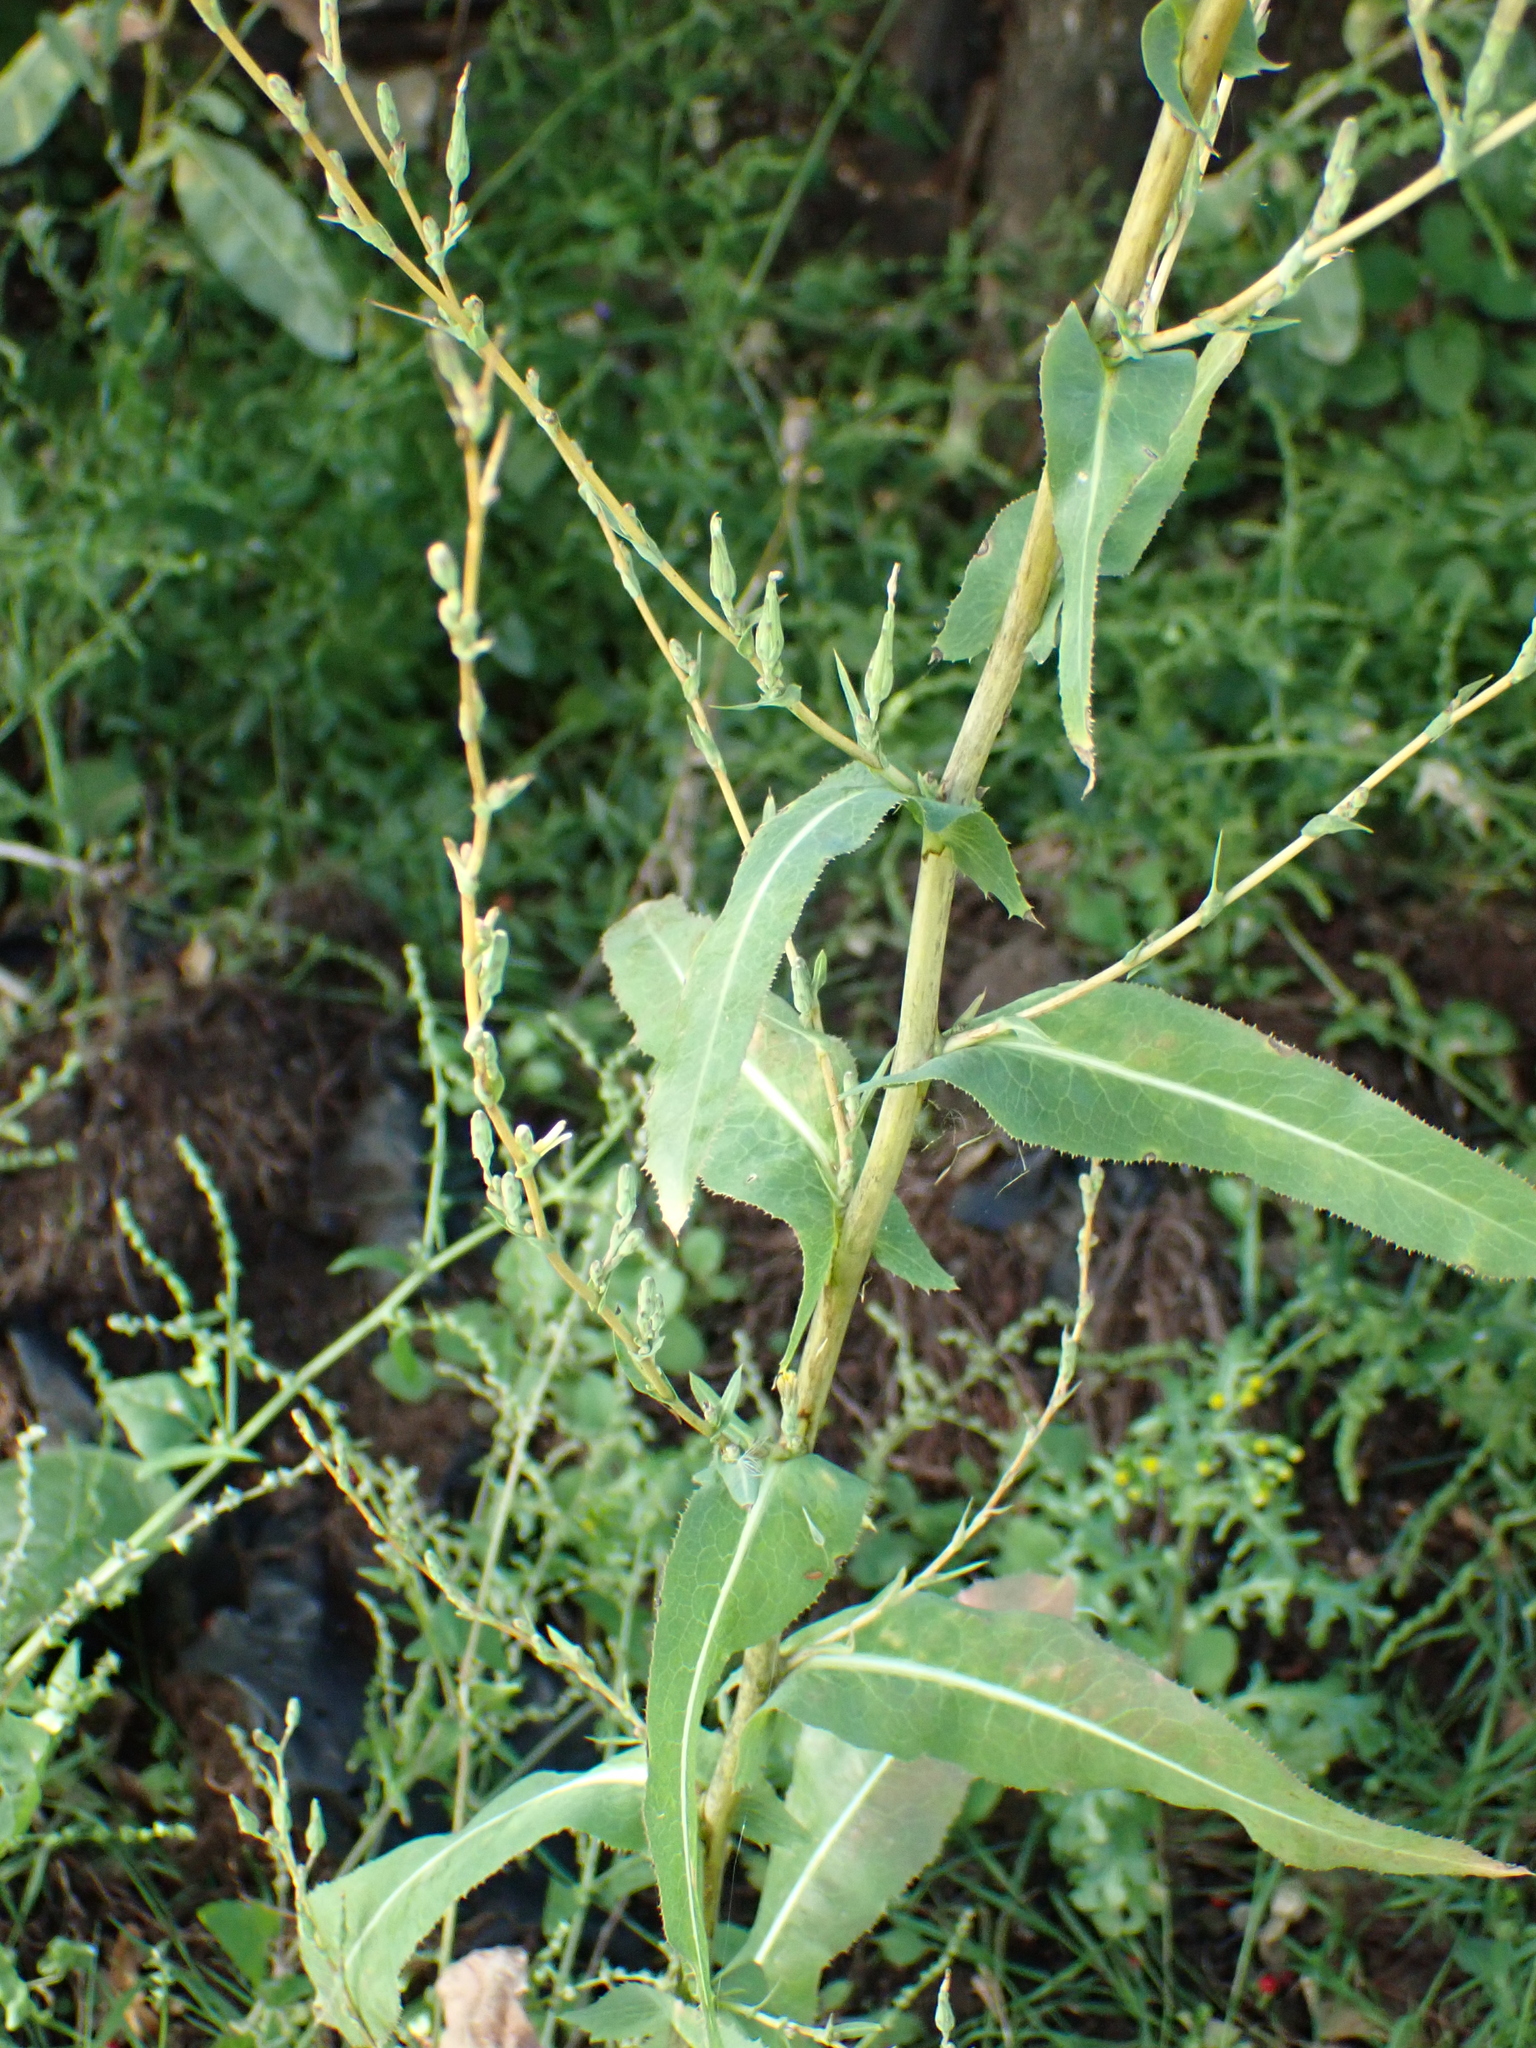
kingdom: Plantae
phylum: Tracheophyta
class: Magnoliopsida
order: Asterales
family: Asteraceae
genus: Lactuca
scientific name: Lactuca serriola
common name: Prickly lettuce
